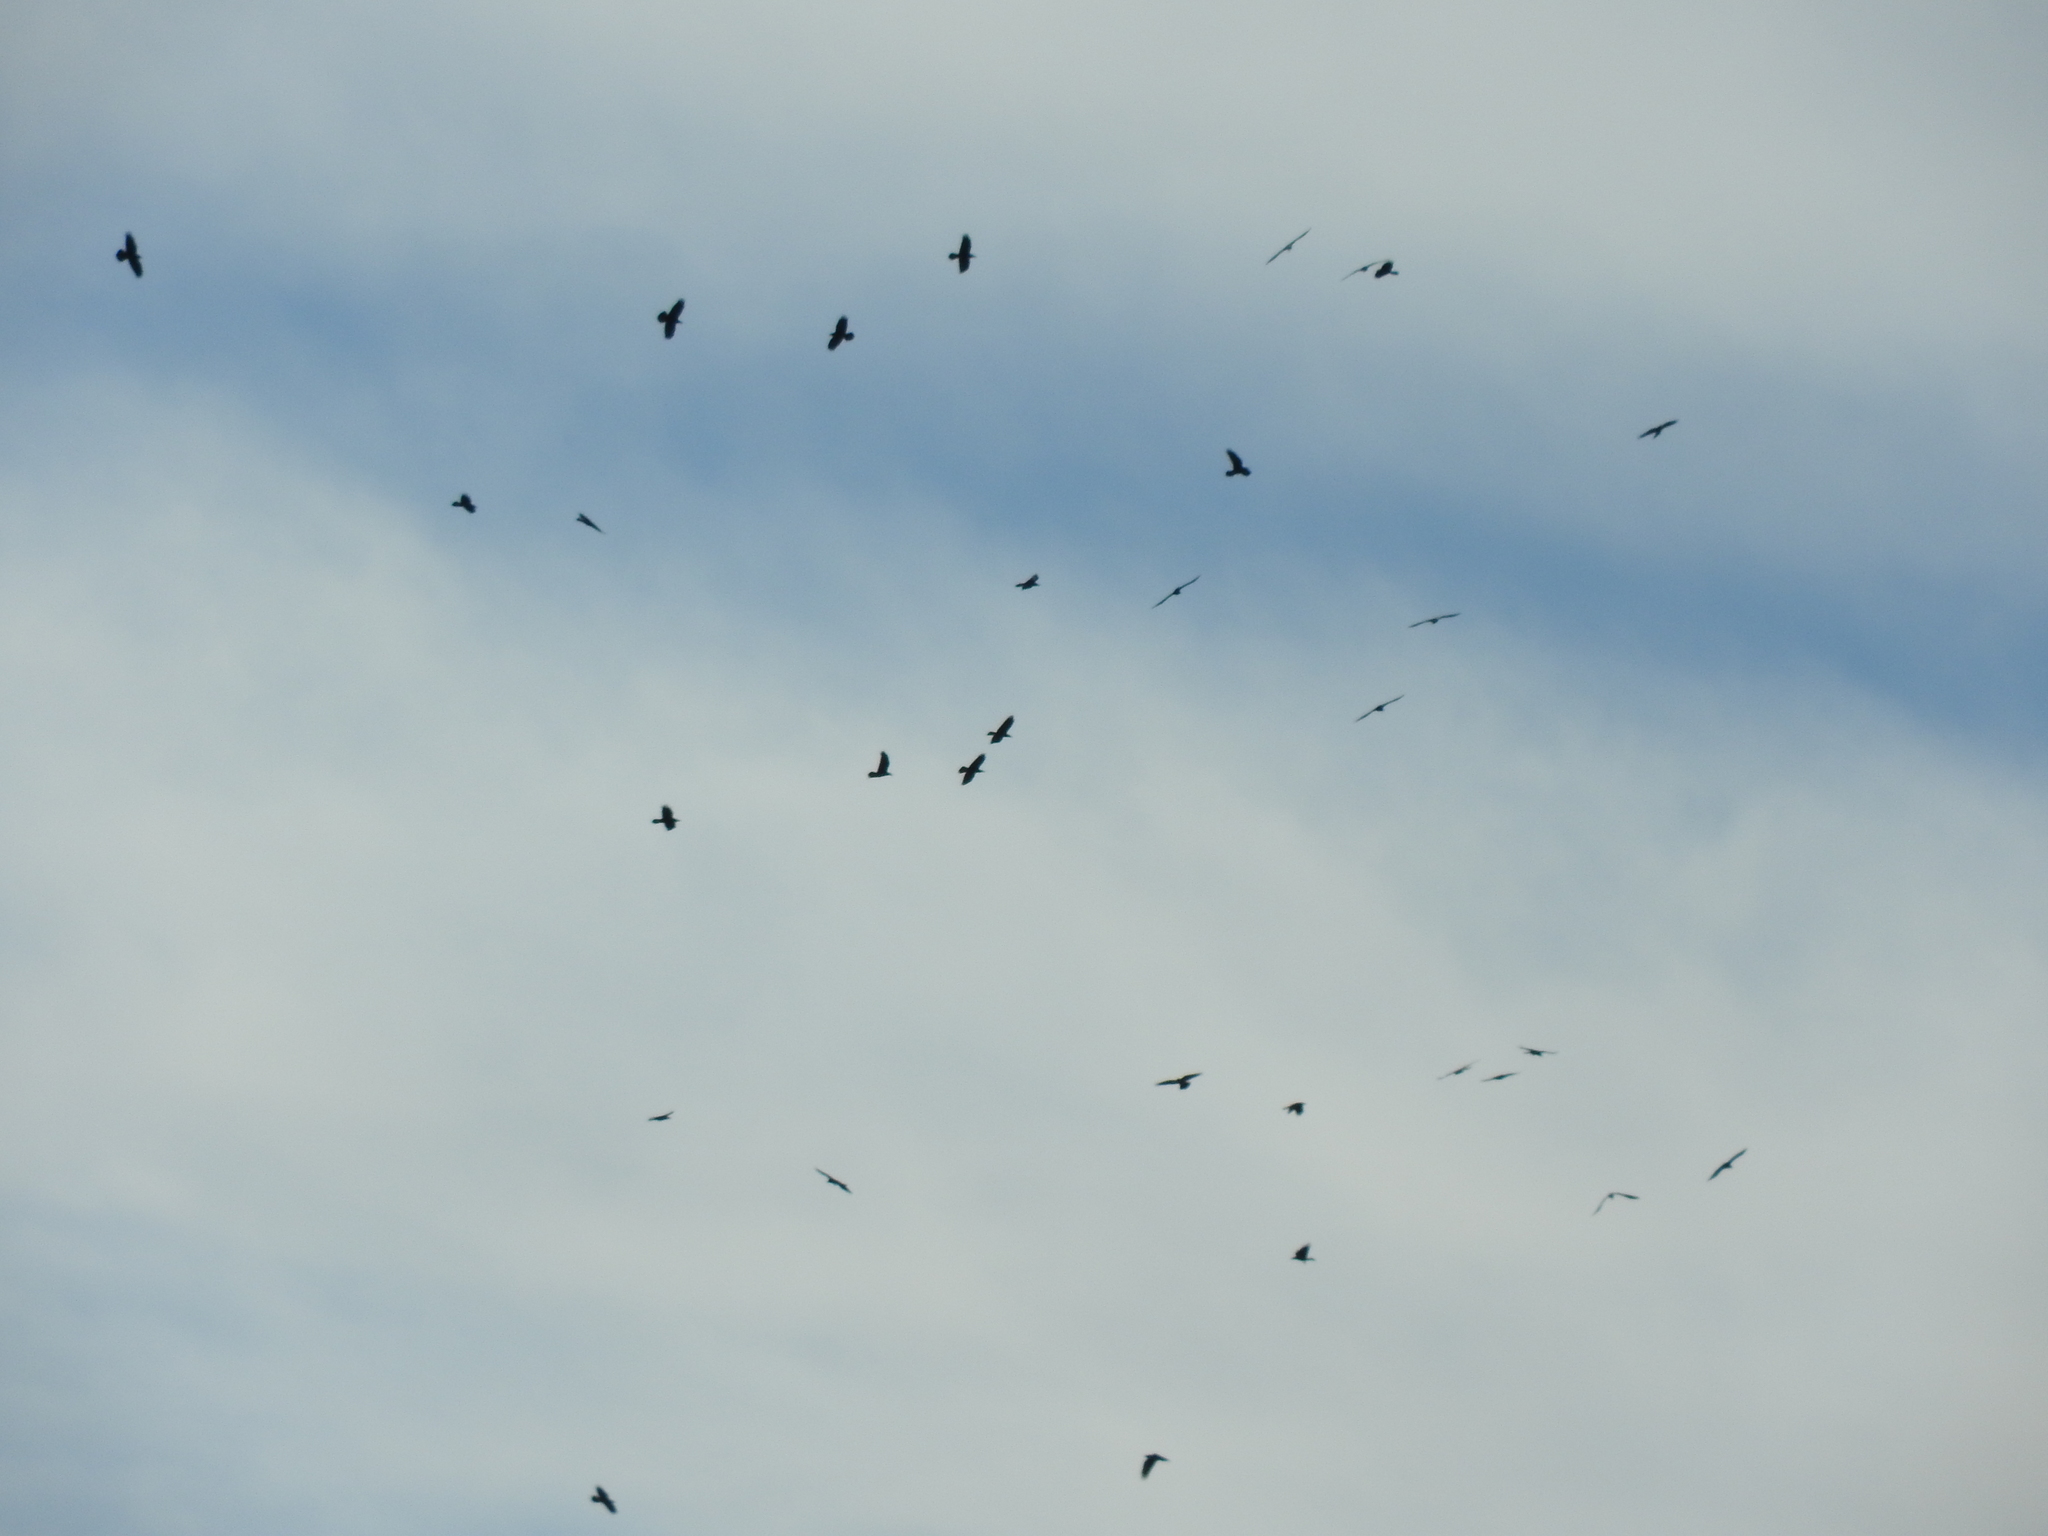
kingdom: Animalia
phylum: Chordata
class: Aves
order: Passeriformes
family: Corvidae
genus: Corvus
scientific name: Corvus corax
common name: Common raven
